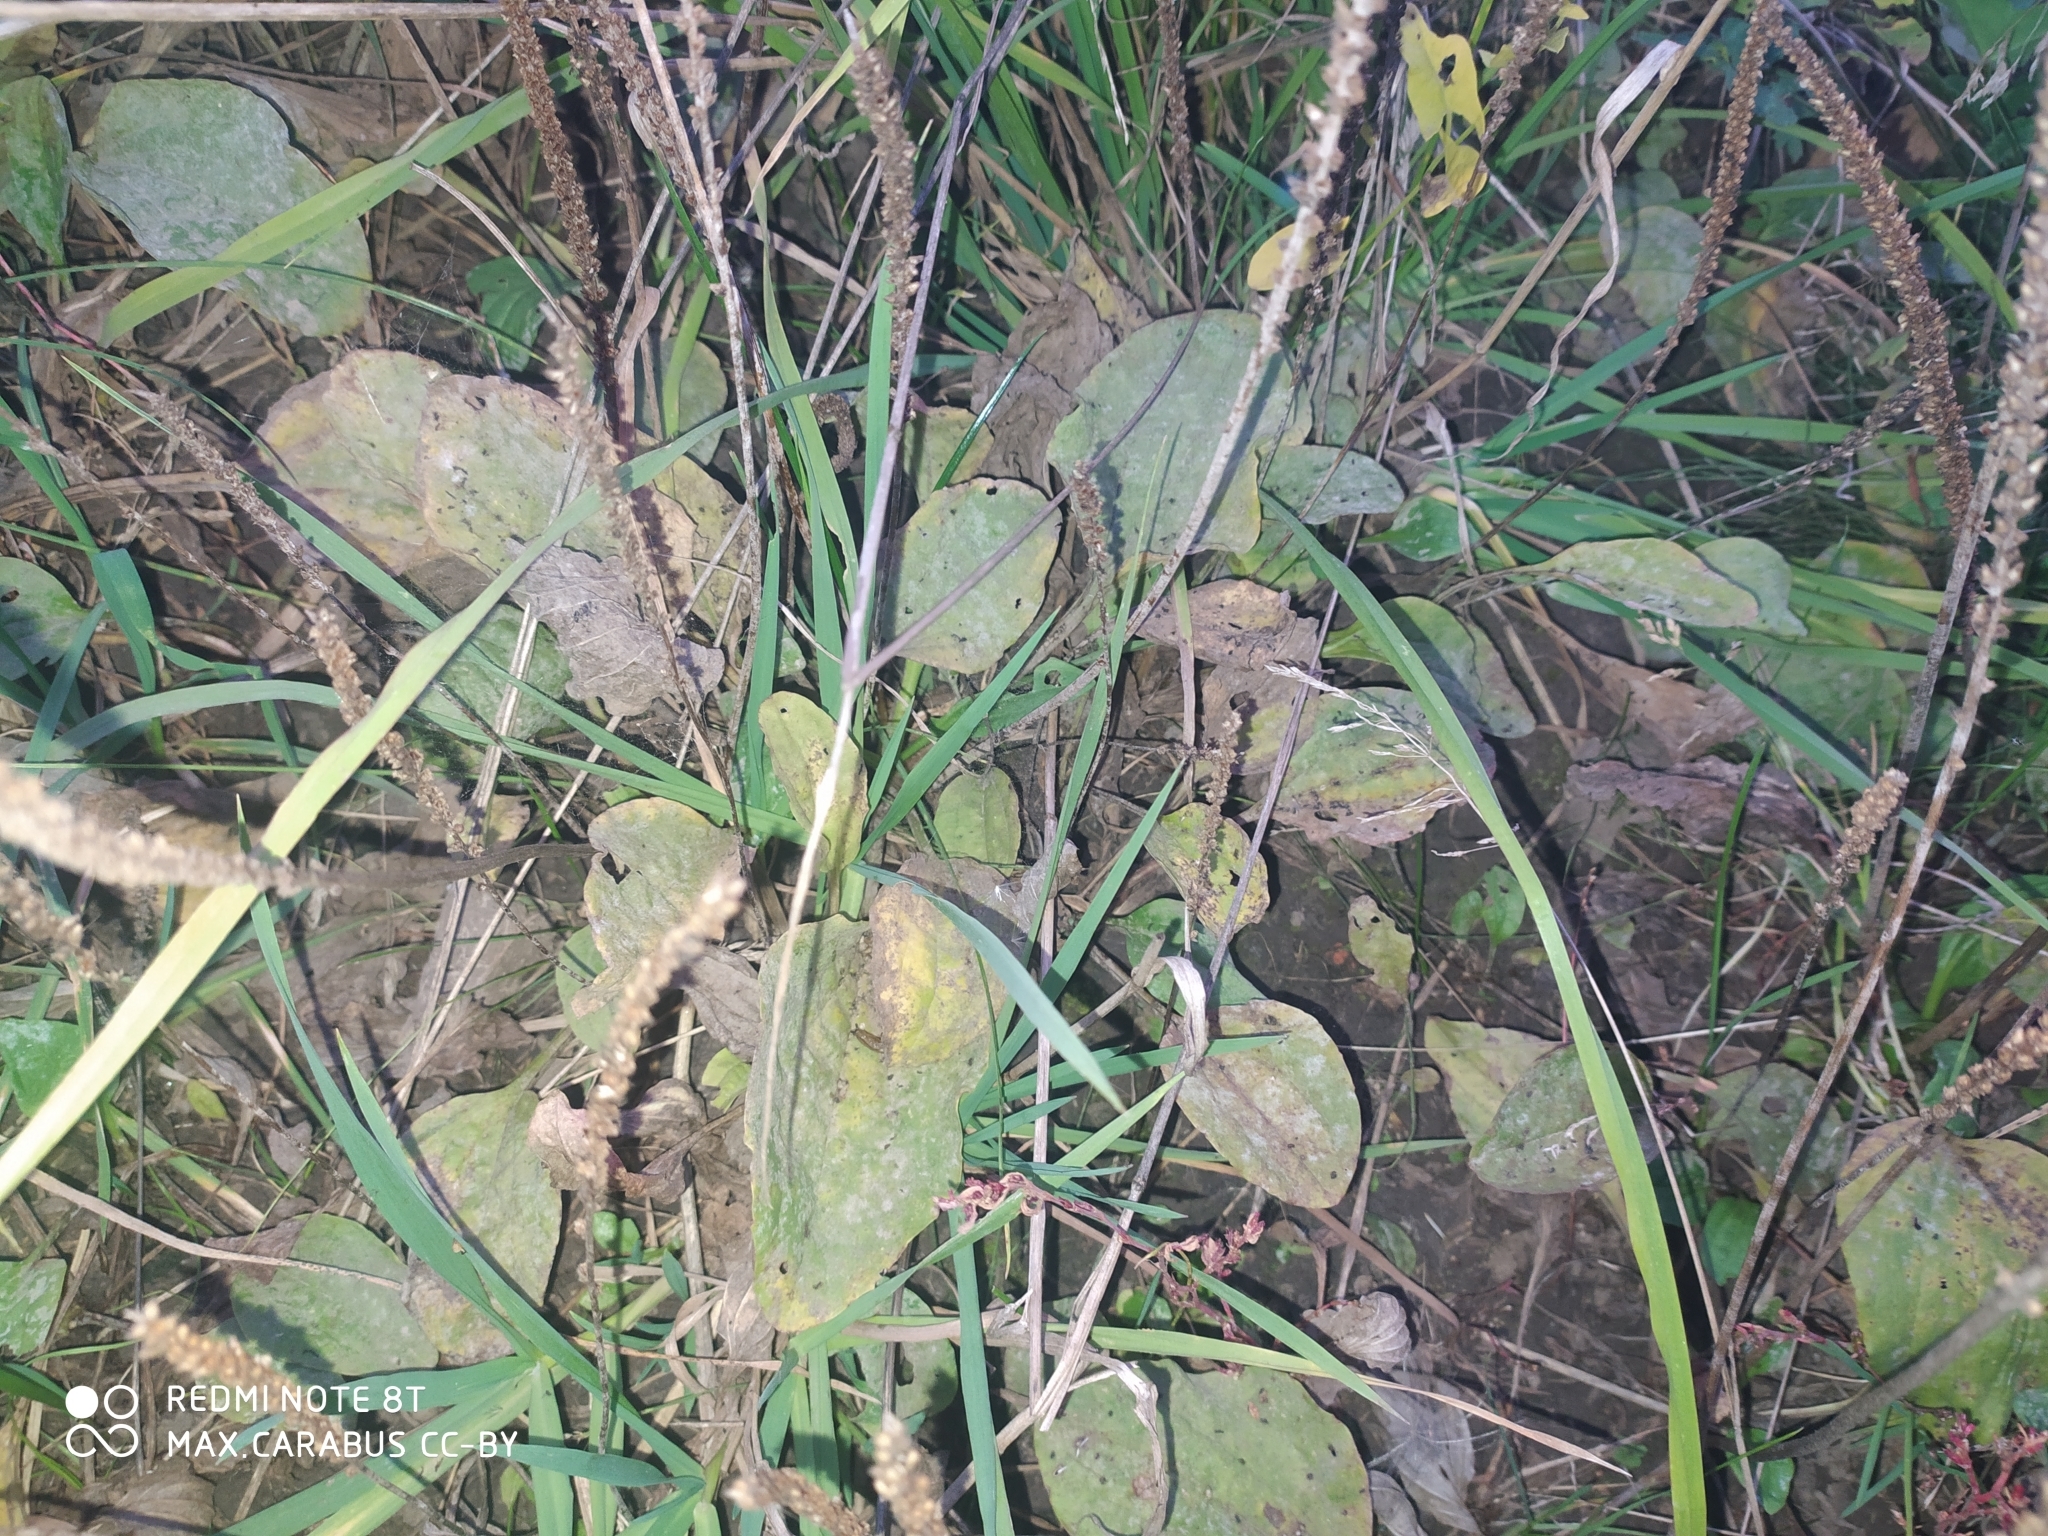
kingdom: Plantae
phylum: Tracheophyta
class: Magnoliopsida
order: Lamiales
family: Plantaginaceae
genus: Plantago
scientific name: Plantago major
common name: Common plantain
